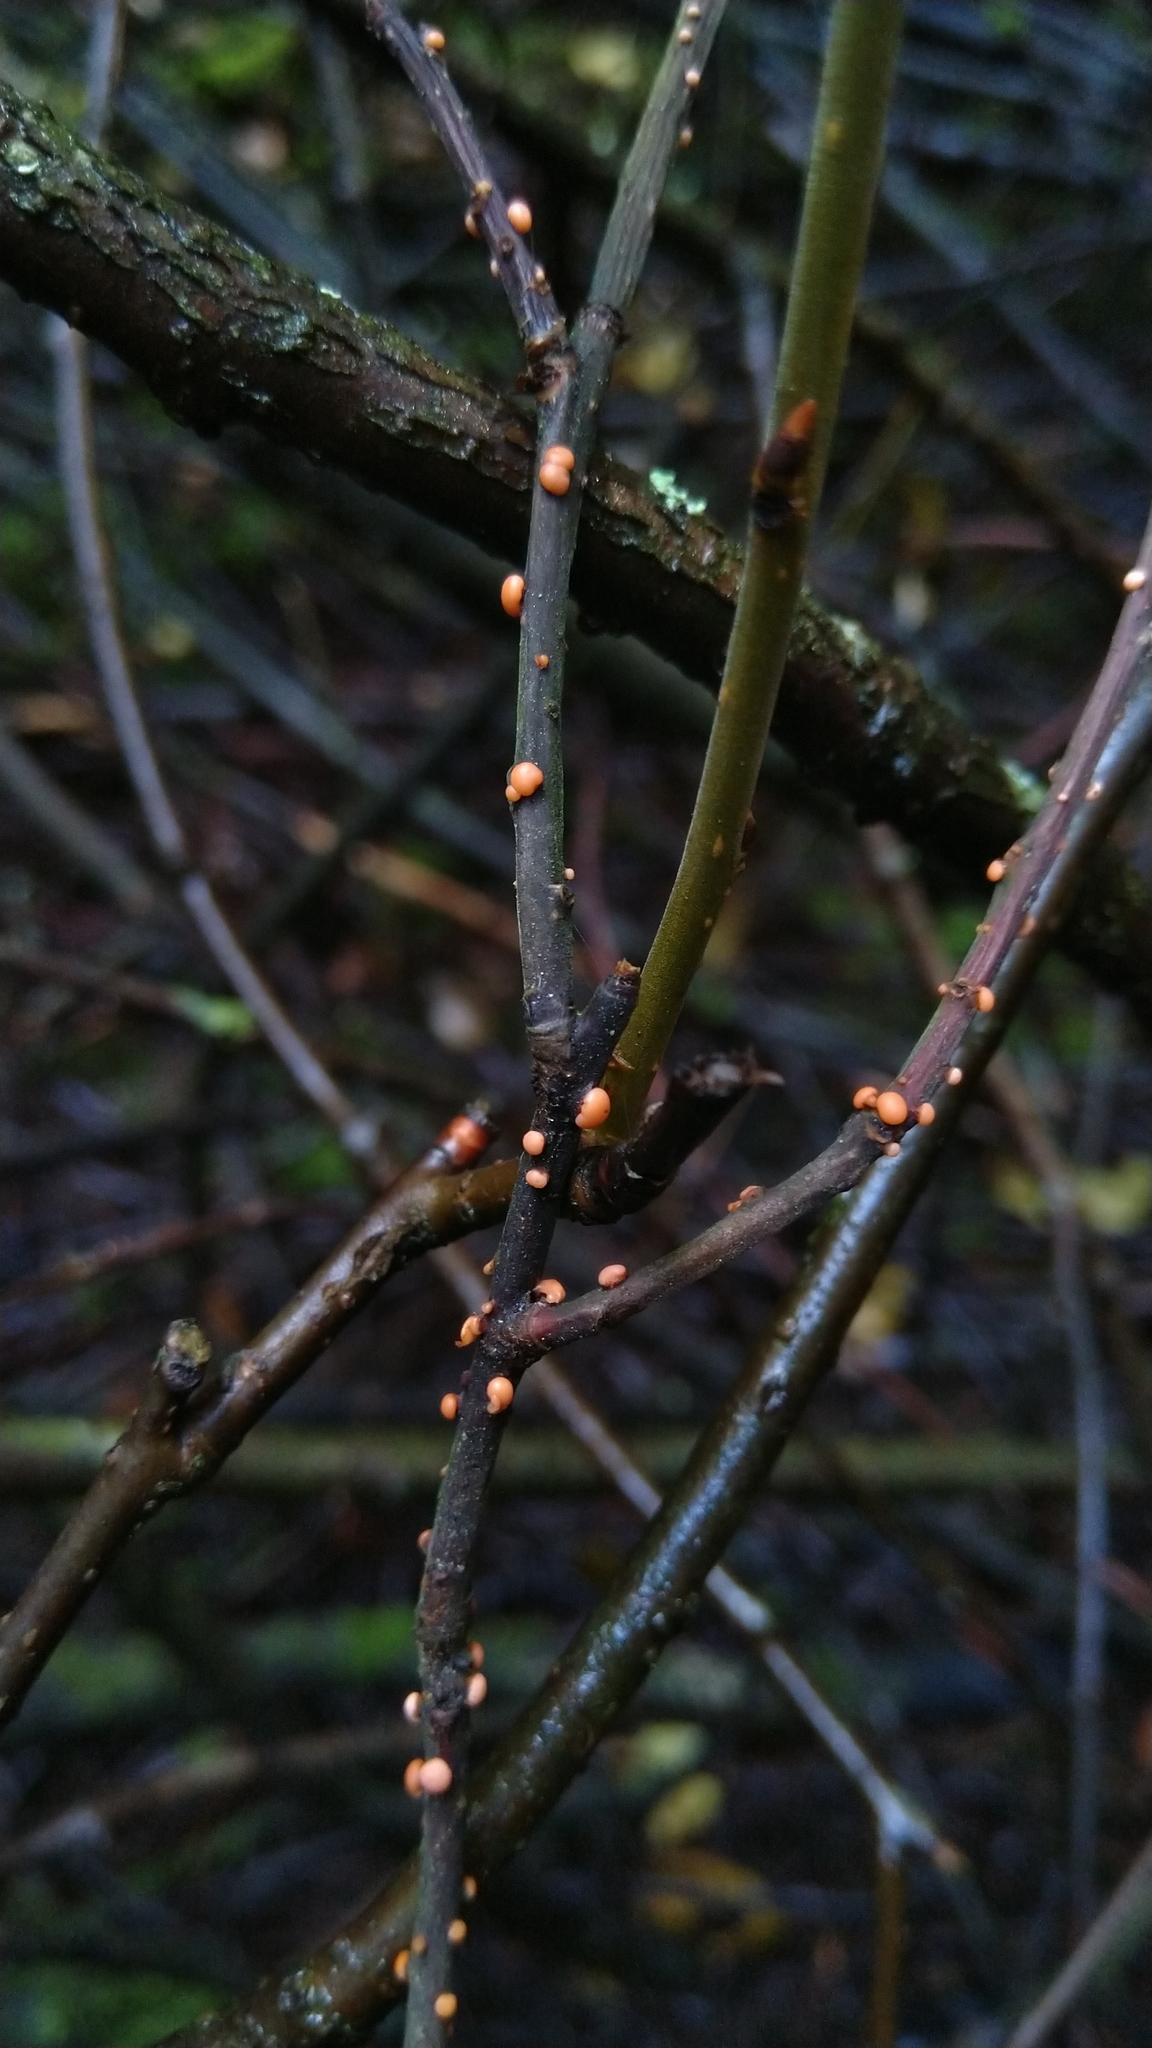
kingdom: Fungi
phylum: Ascomycota
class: Sordariomycetes
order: Hypocreales
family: Nectriaceae
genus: Nectria
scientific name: Nectria cinnabarina
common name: Coral spot
